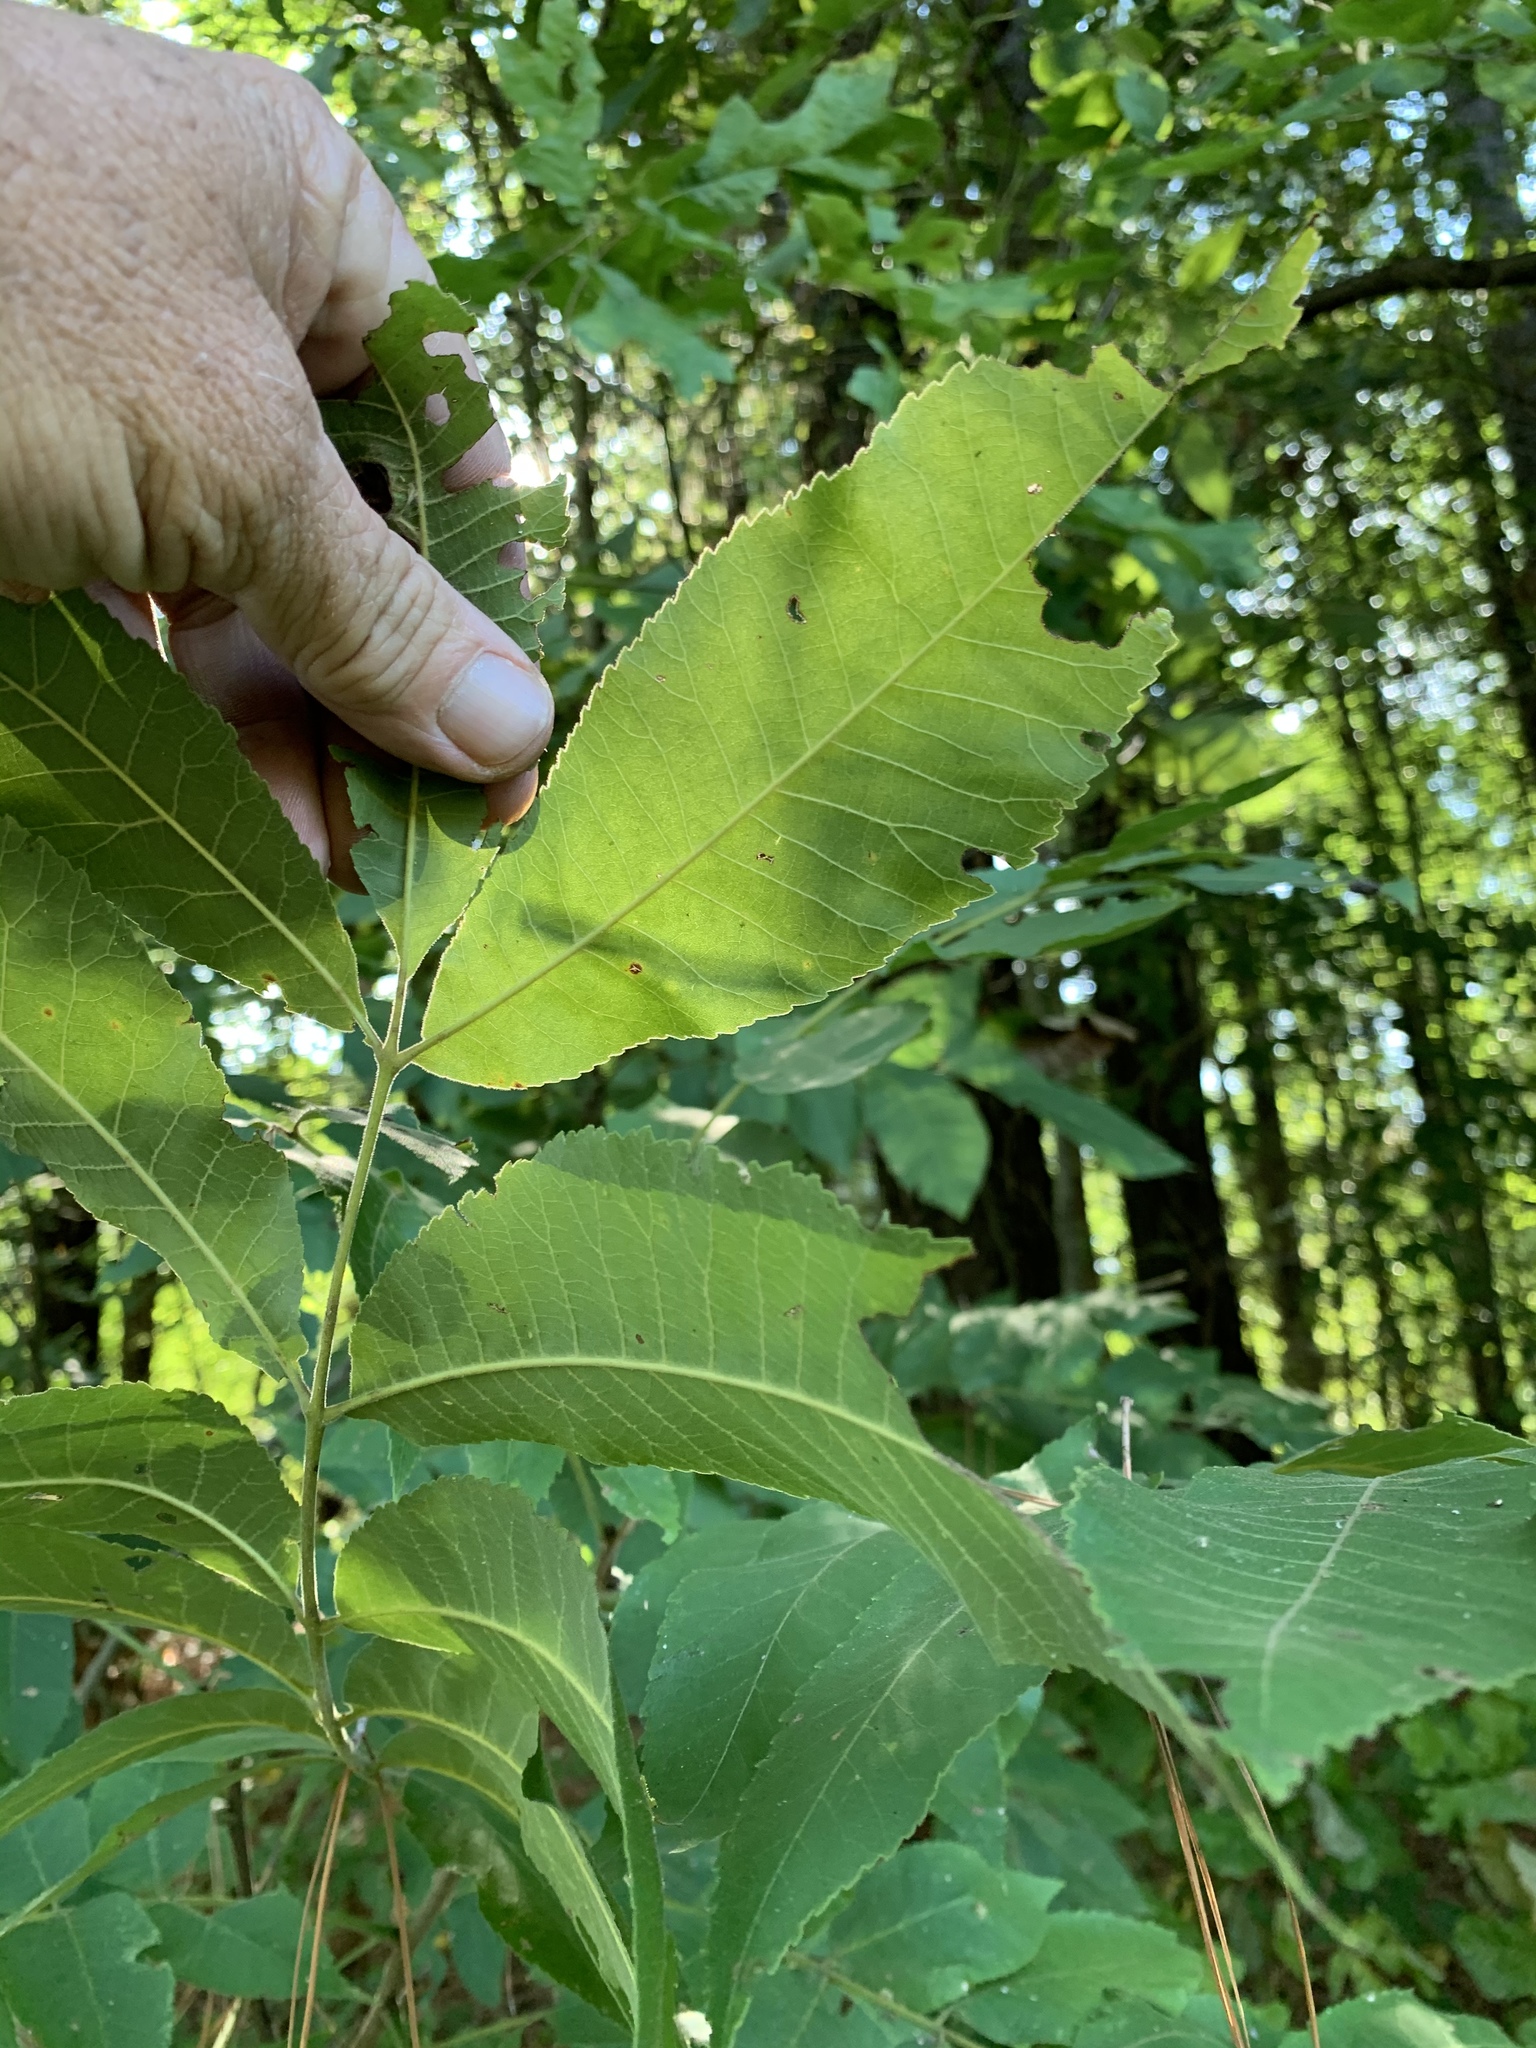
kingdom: Plantae
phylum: Tracheophyta
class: Magnoliopsida
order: Fagales
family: Juglandaceae
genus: Carya
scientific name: Carya illinoinensis
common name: Pecan
